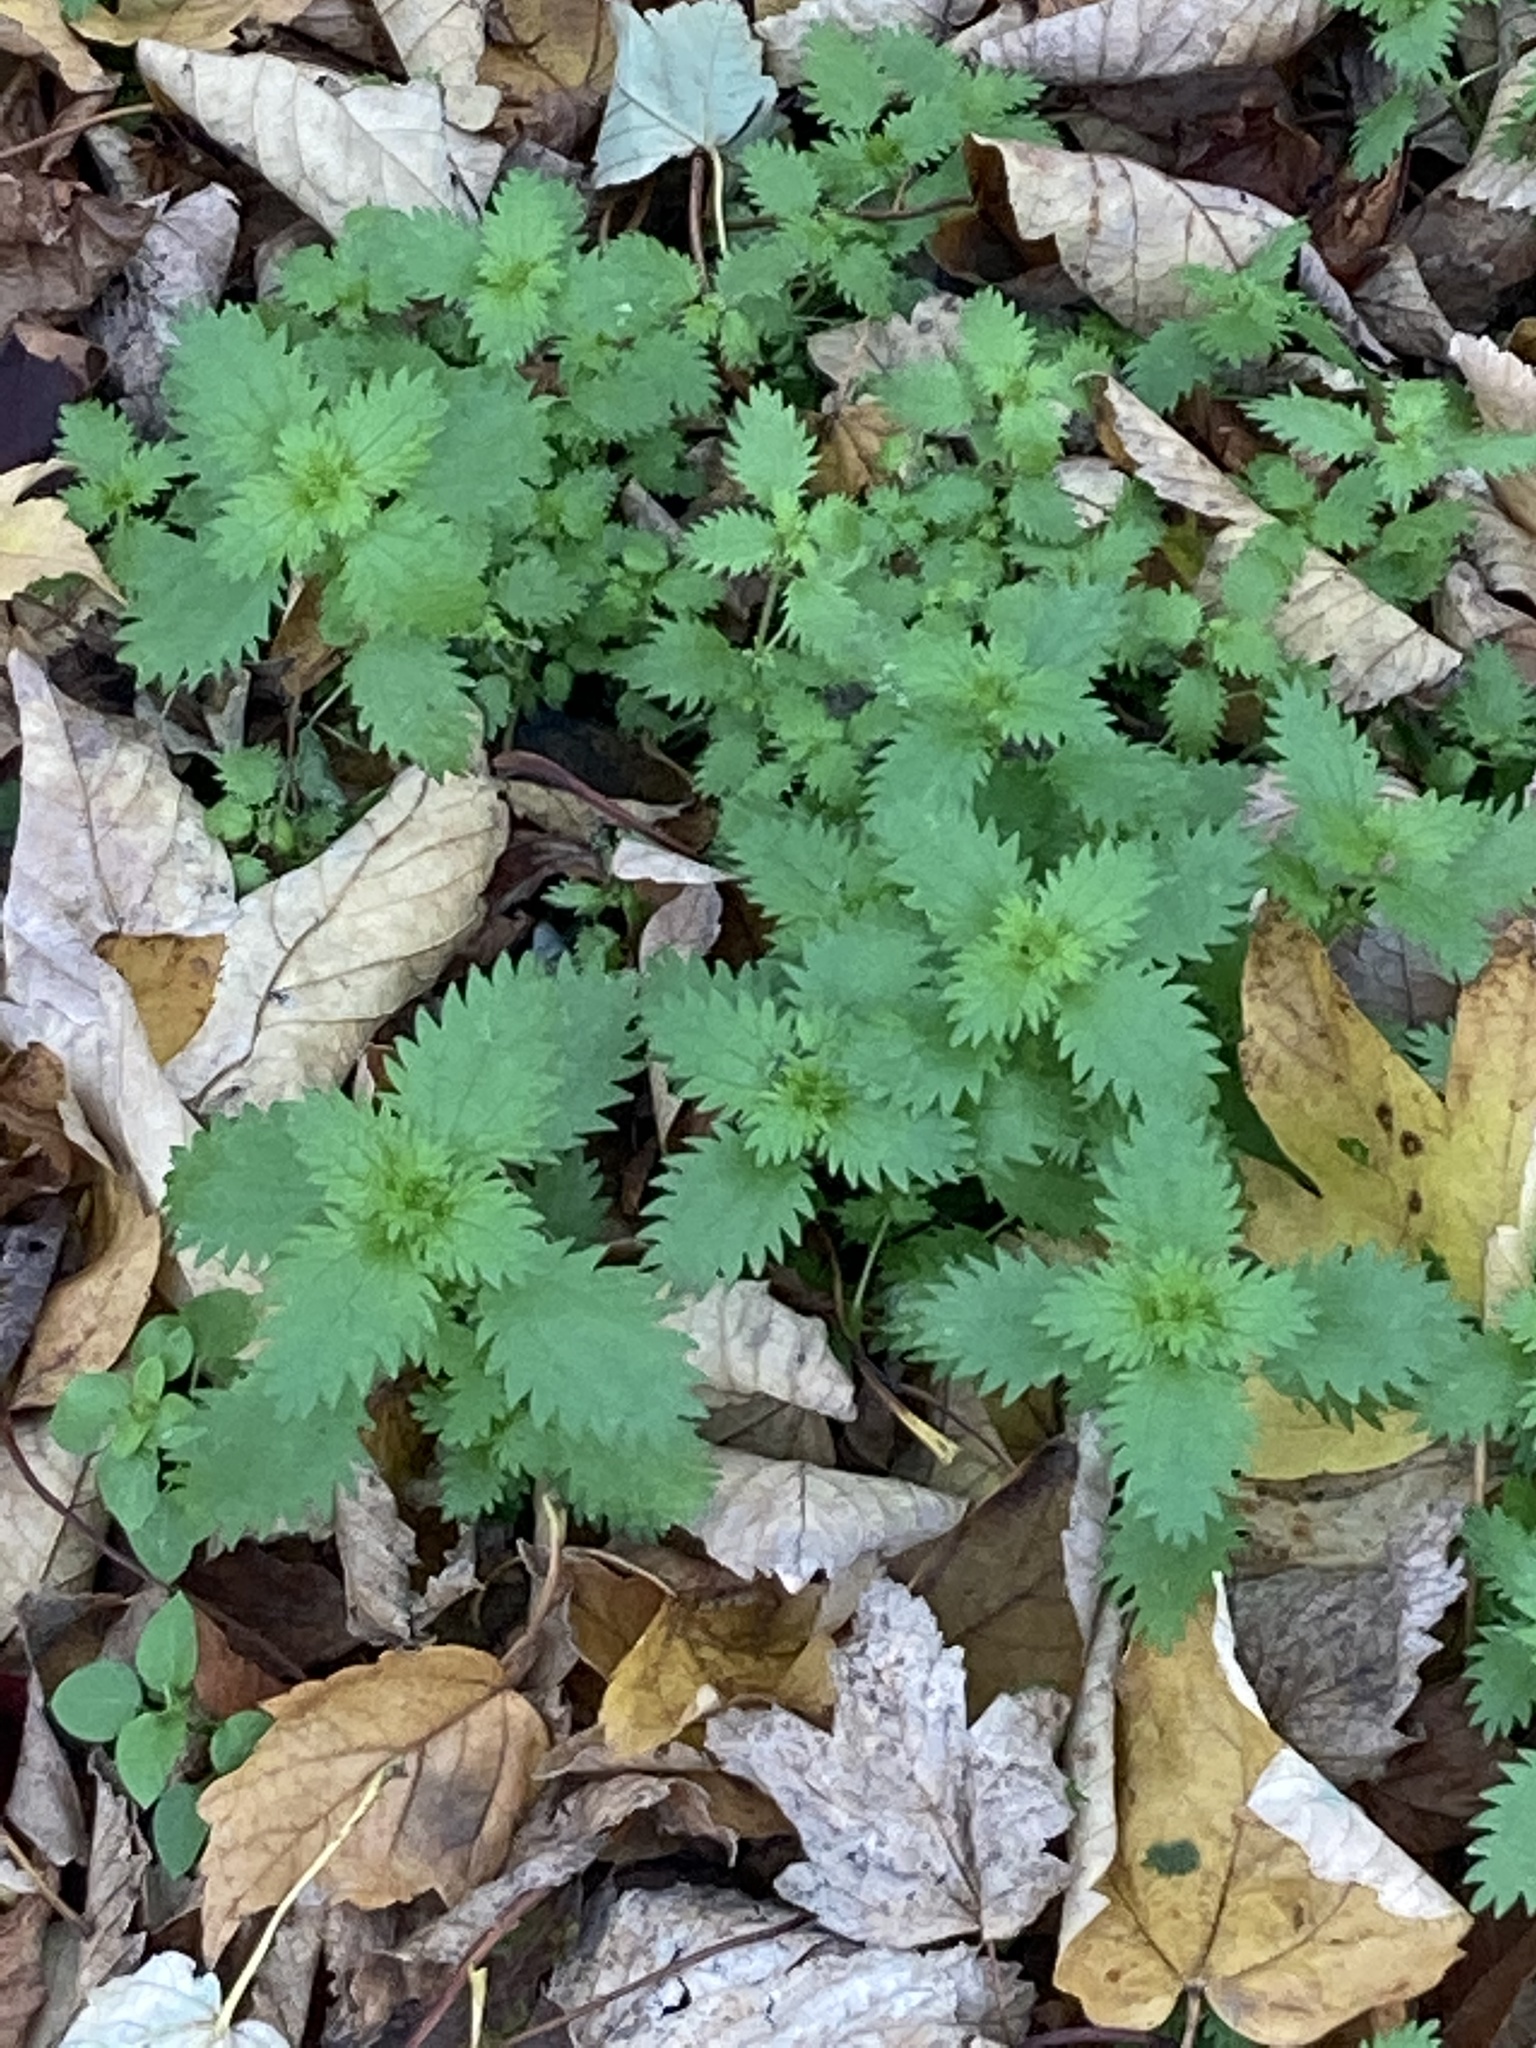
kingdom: Plantae
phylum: Tracheophyta
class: Magnoliopsida
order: Rosales
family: Urticaceae
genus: Urtica
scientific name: Urtica urens
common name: Dwarf nettle
